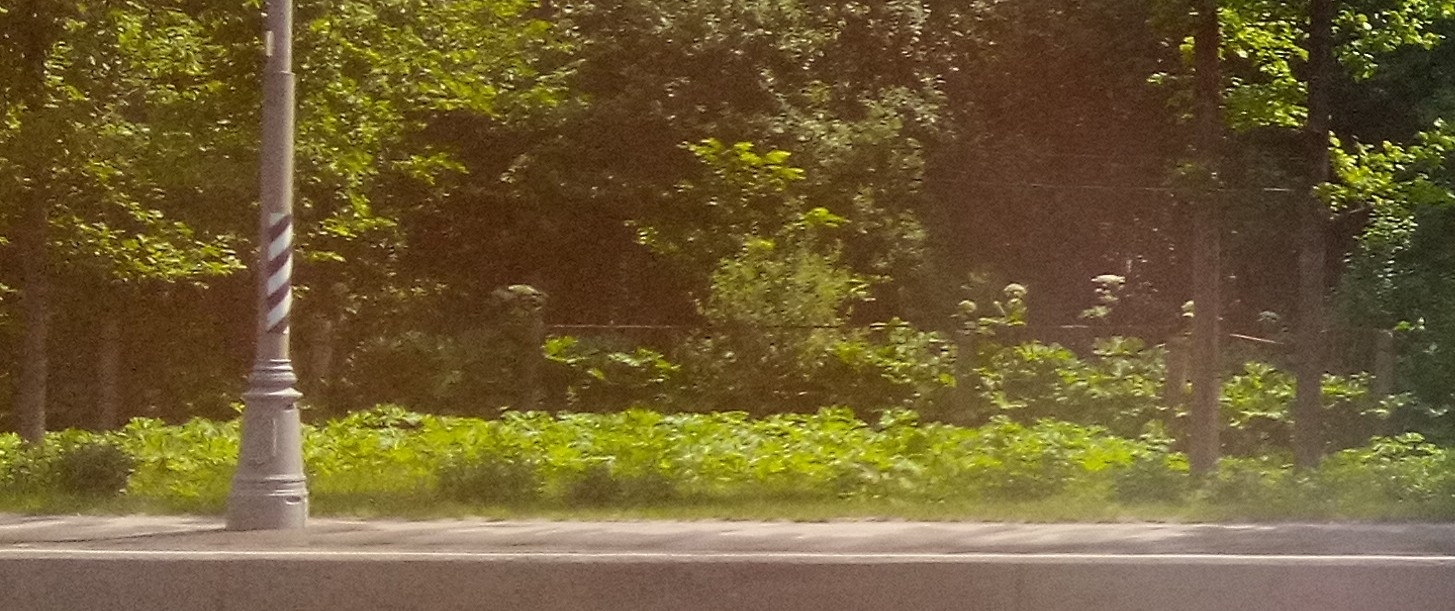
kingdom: Plantae
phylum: Tracheophyta
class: Magnoliopsida
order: Apiales
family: Apiaceae
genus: Heracleum
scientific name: Heracleum sosnowskyi
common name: Sosnowsky's hogweed
